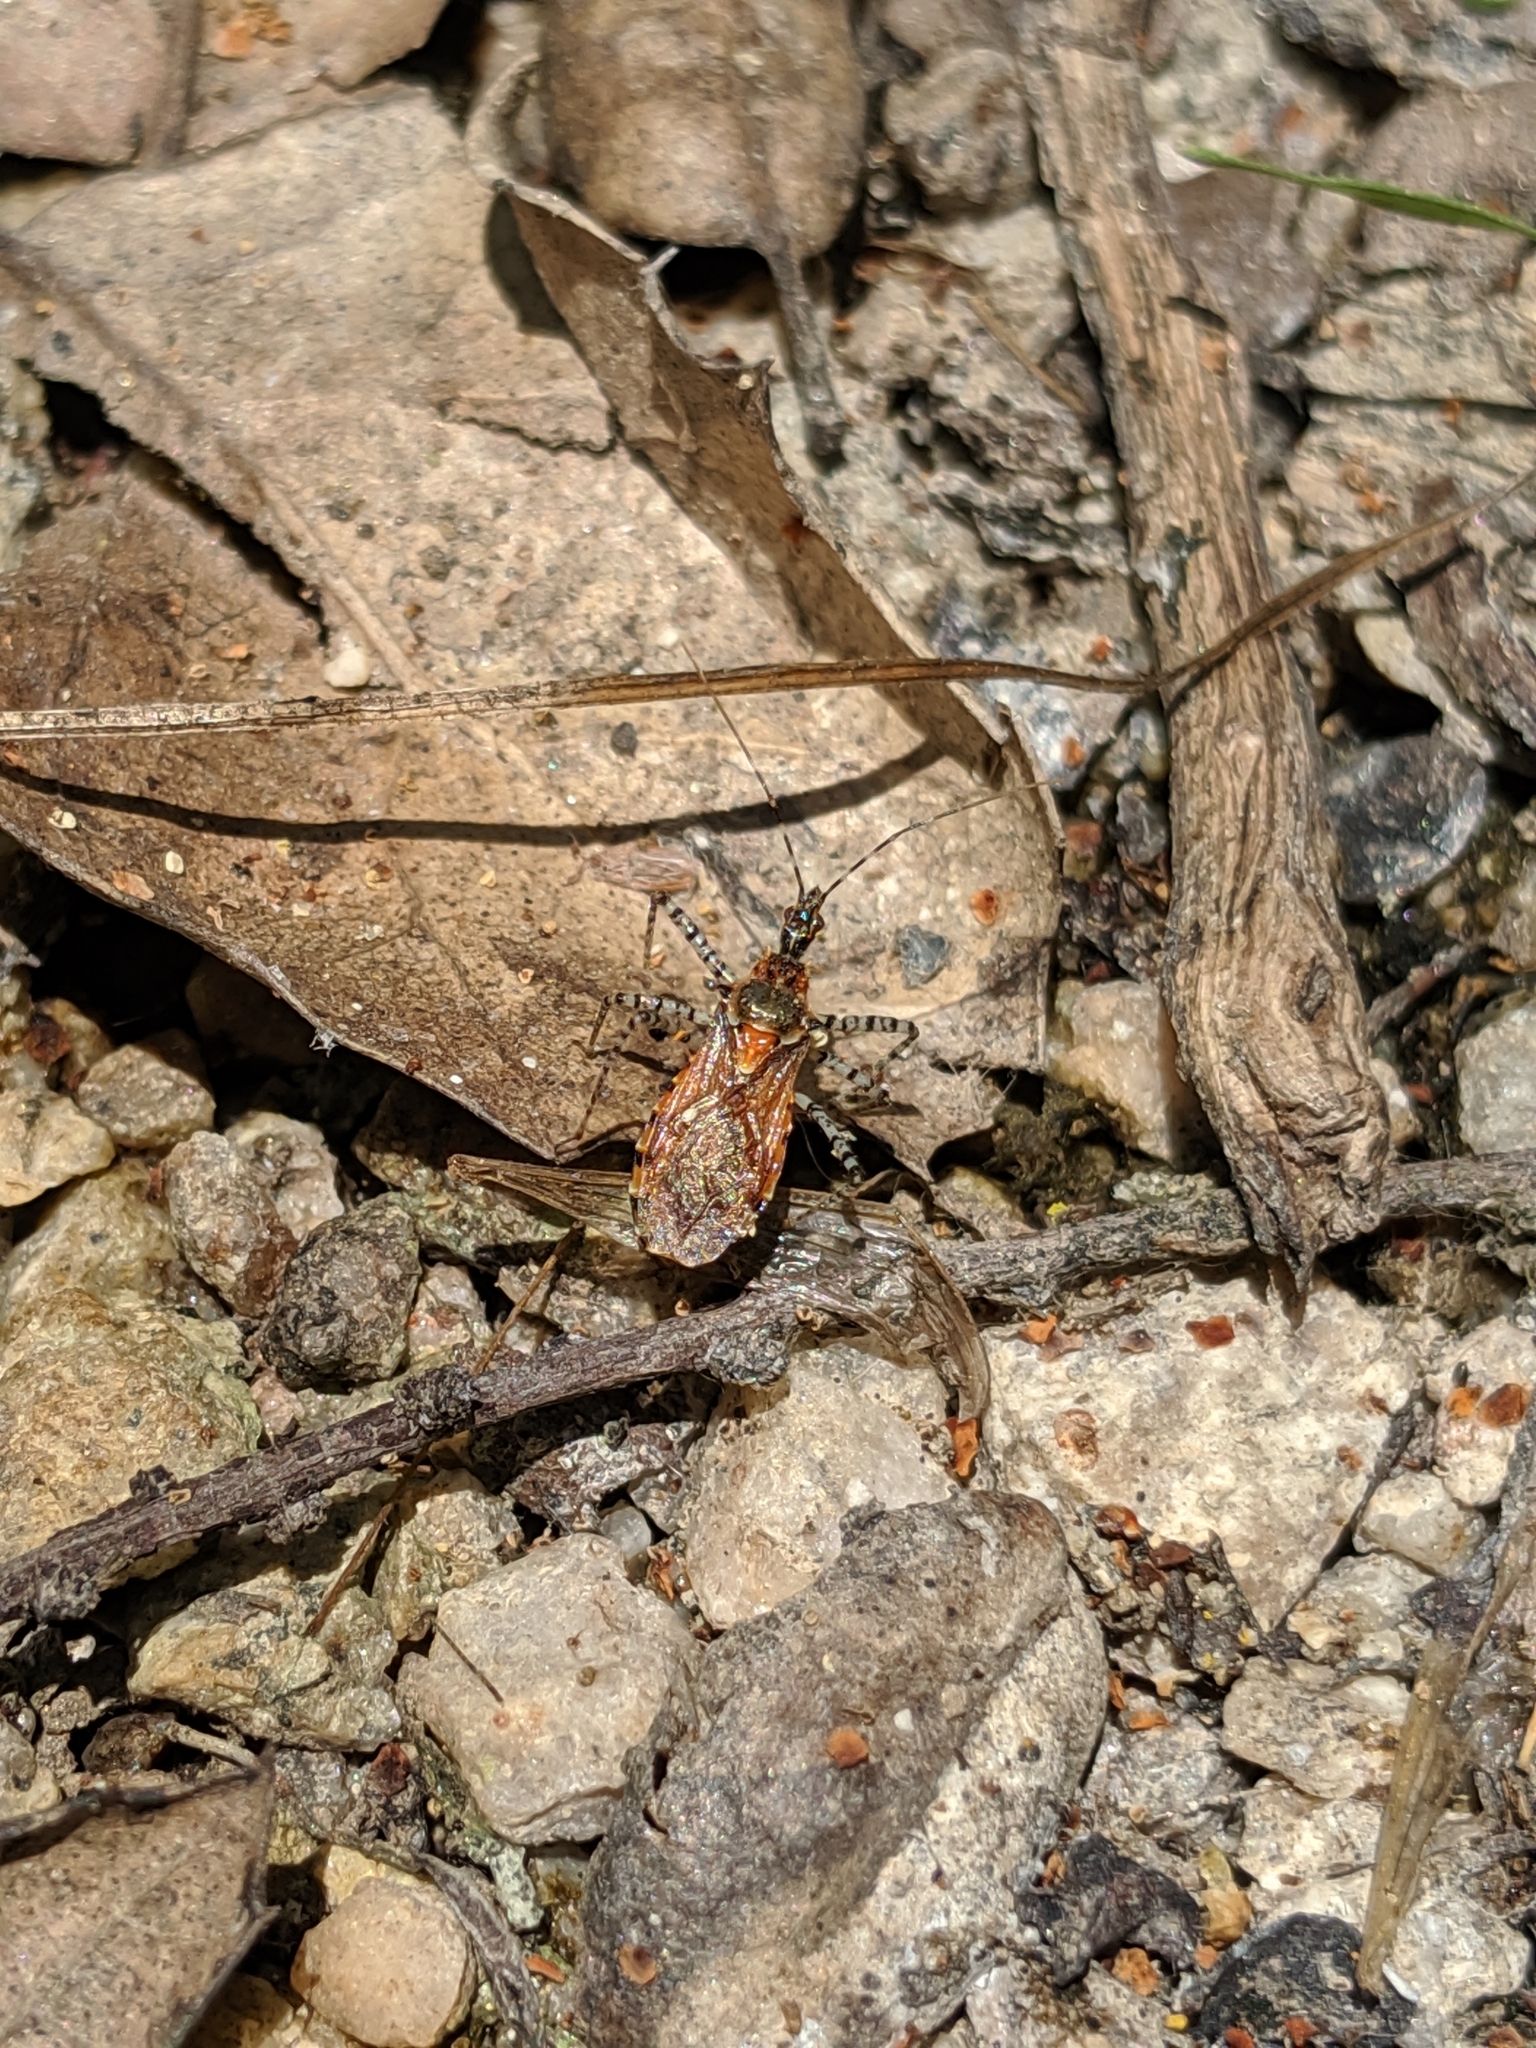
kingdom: Animalia
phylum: Arthropoda
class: Insecta
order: Hemiptera
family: Reduviidae
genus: Pselliopus
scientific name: Pselliopus spinicollis
